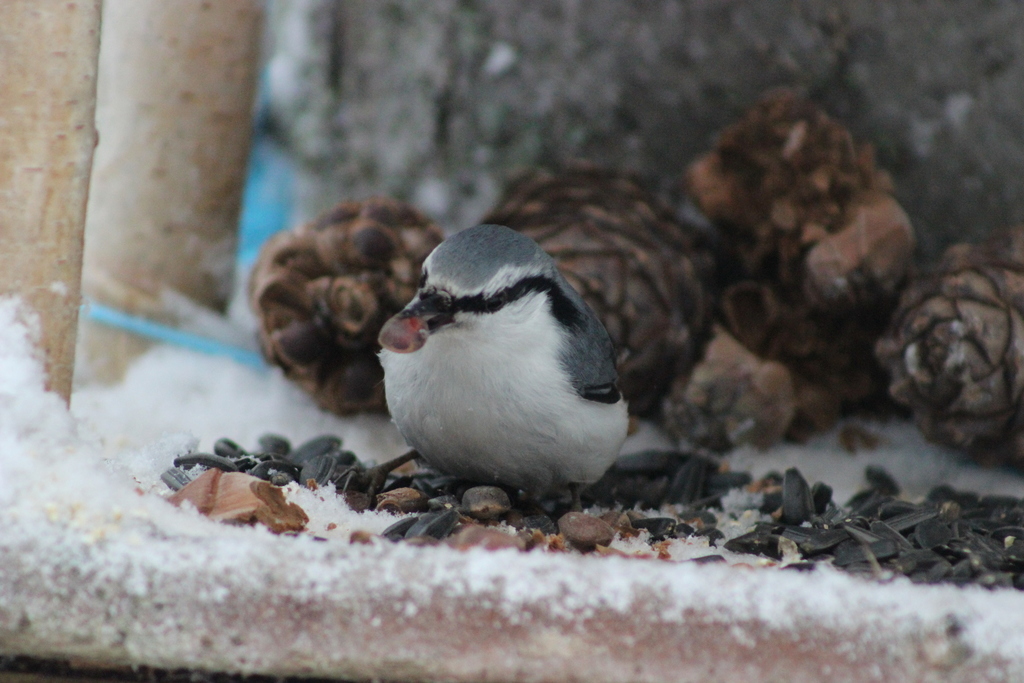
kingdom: Animalia
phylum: Chordata
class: Aves
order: Passeriformes
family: Sittidae
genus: Sitta
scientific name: Sitta europaea
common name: Eurasian nuthatch
